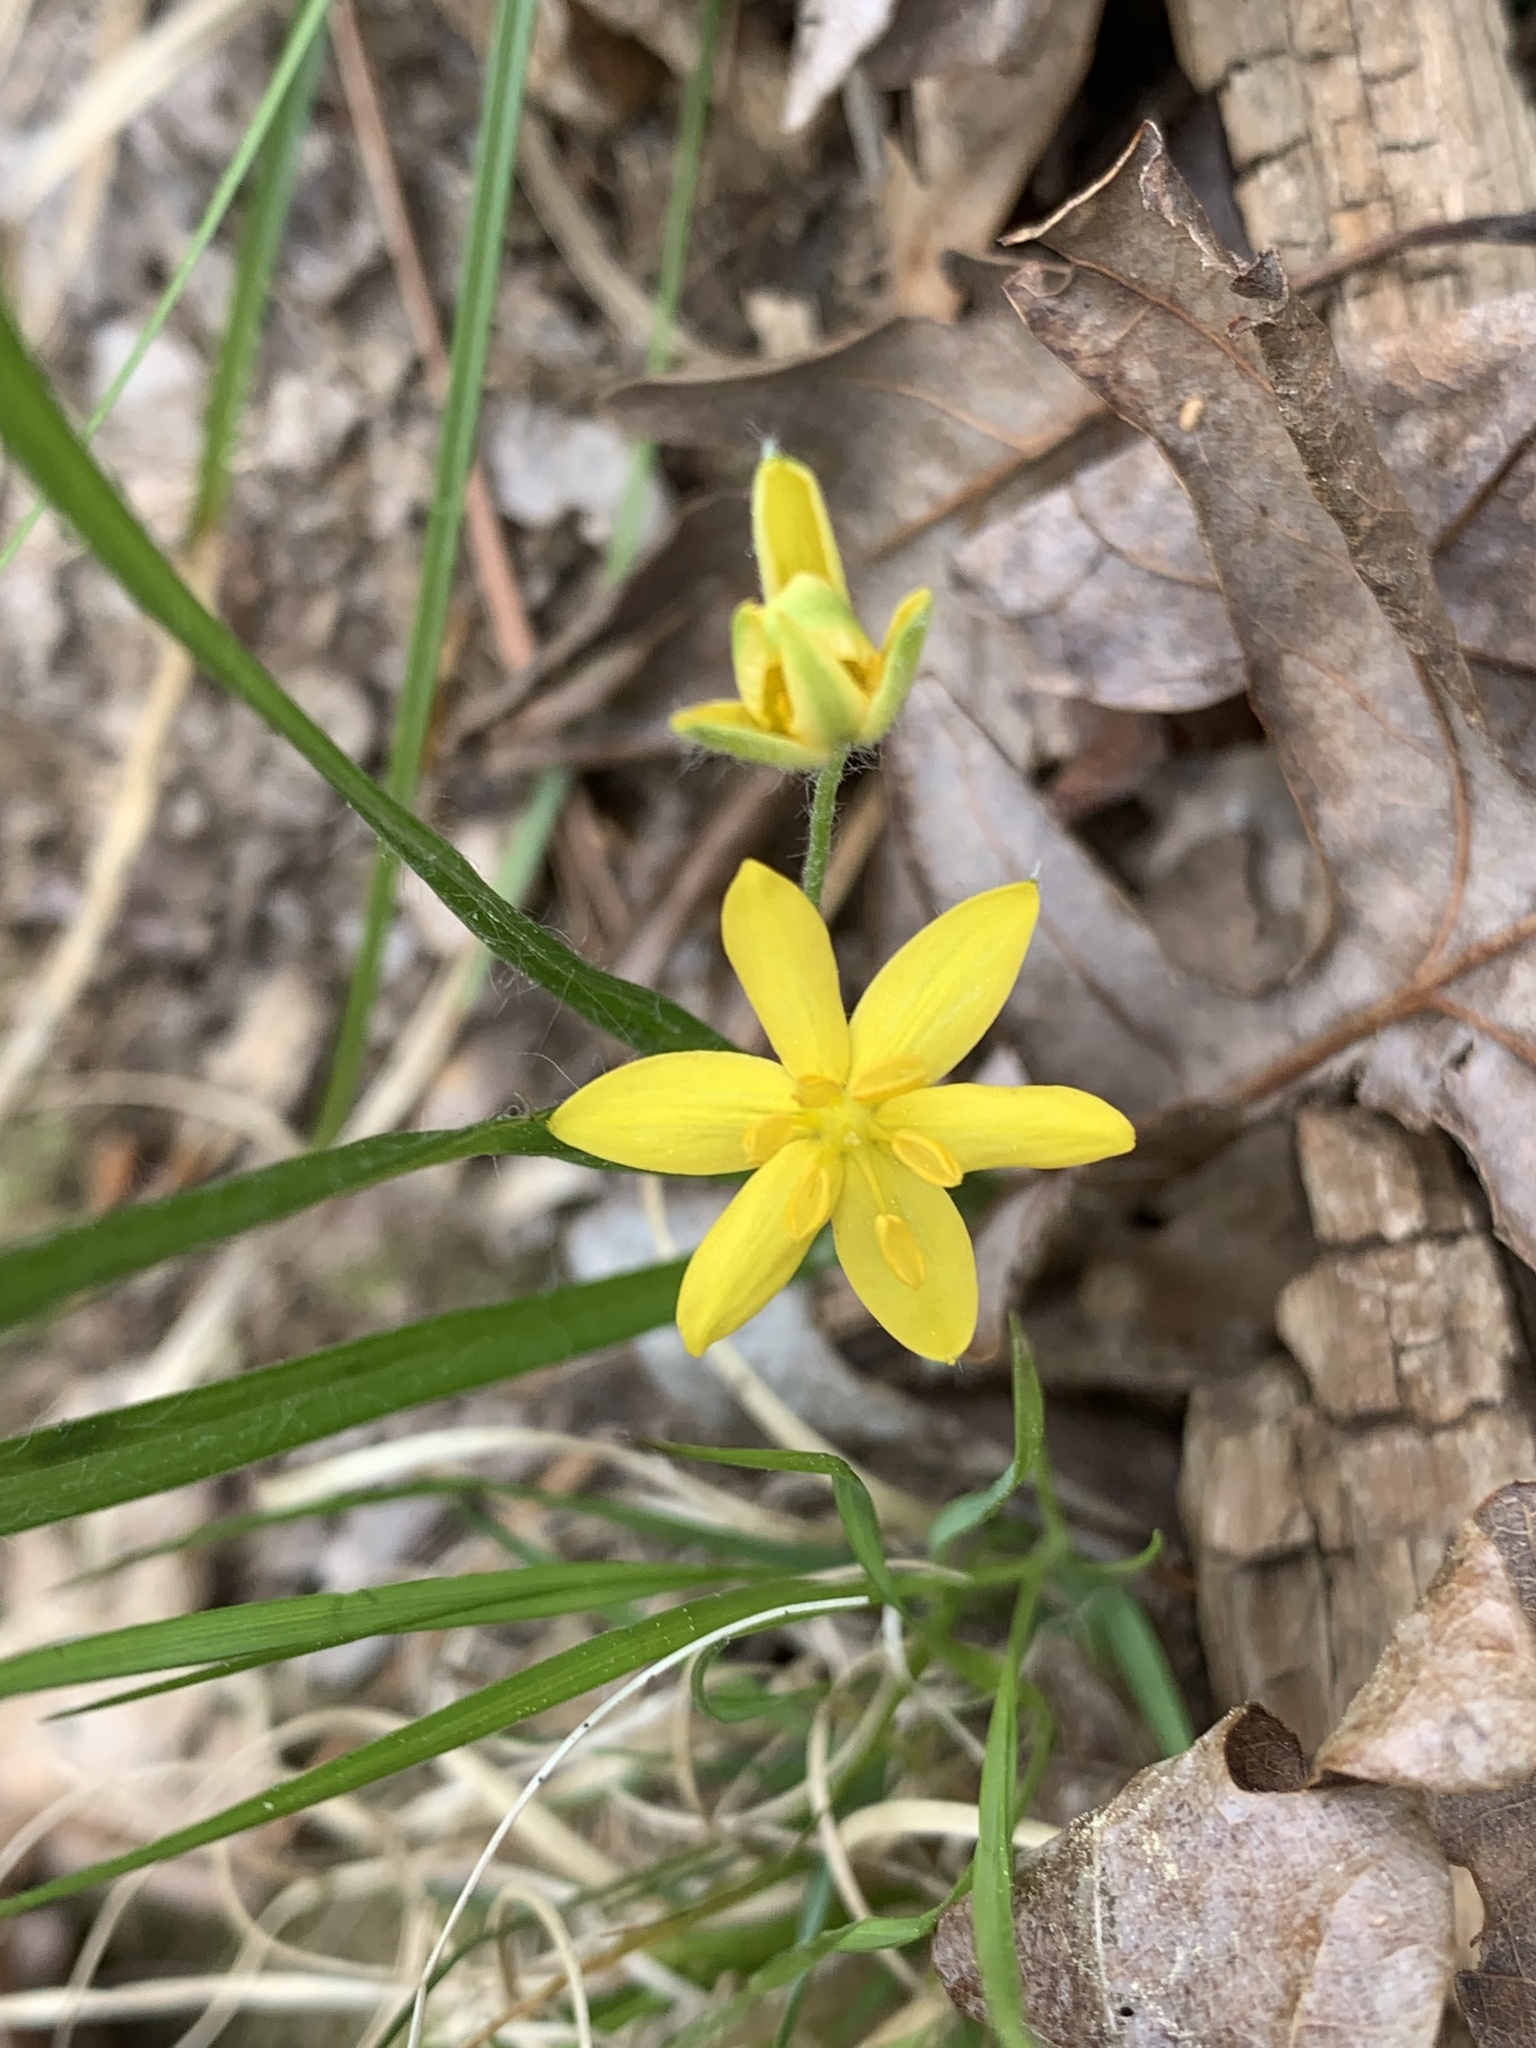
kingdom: Plantae
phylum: Tracheophyta
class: Liliopsida
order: Asparagales
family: Hypoxidaceae
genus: Hypoxis
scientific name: Hypoxis hirsuta
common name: Common goldstar
